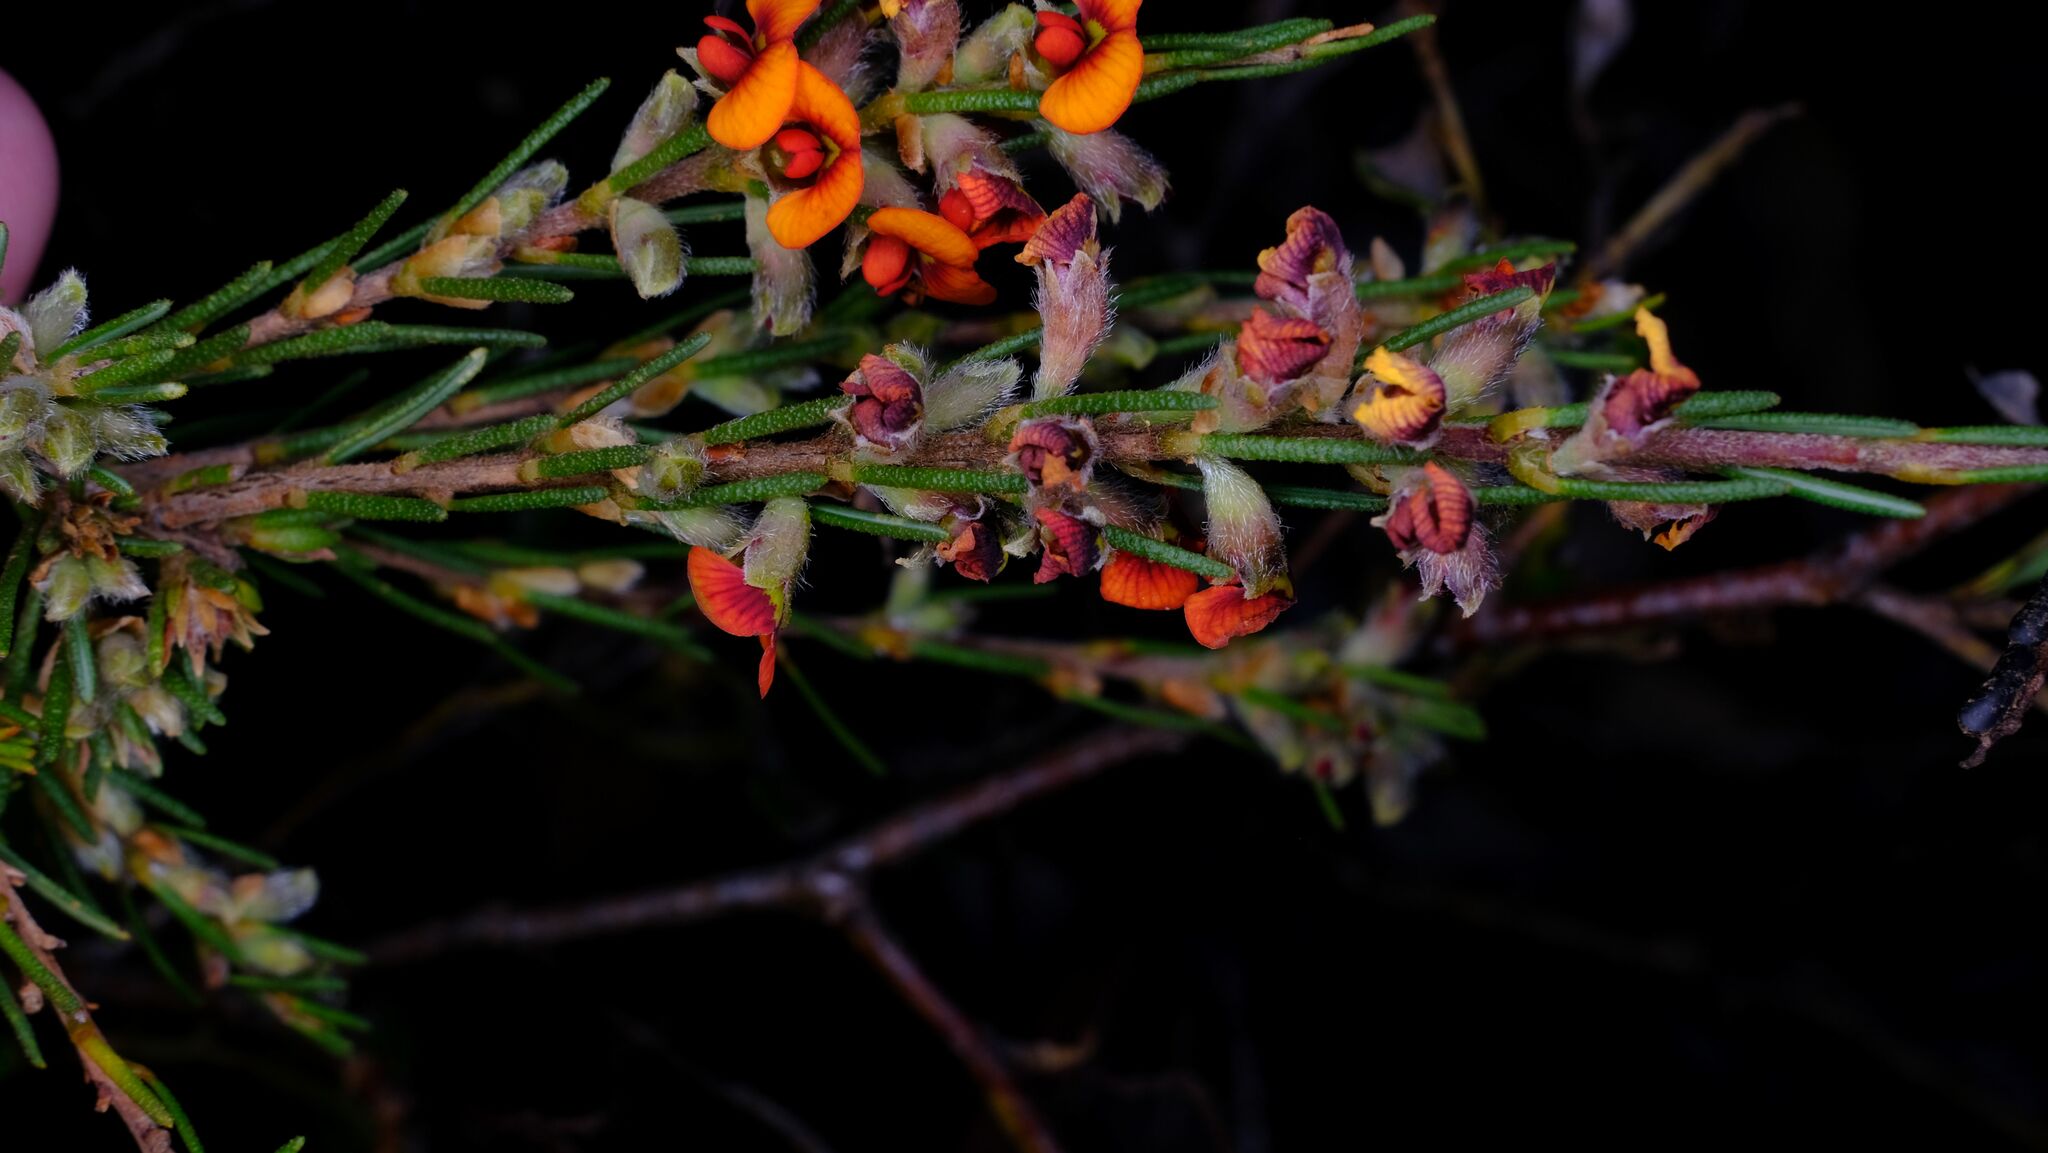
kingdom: Plantae
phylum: Tracheophyta
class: Magnoliopsida
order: Fabales
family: Fabaceae
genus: Dillwynia
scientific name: Dillwynia sericea
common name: Showy parrot-pea
